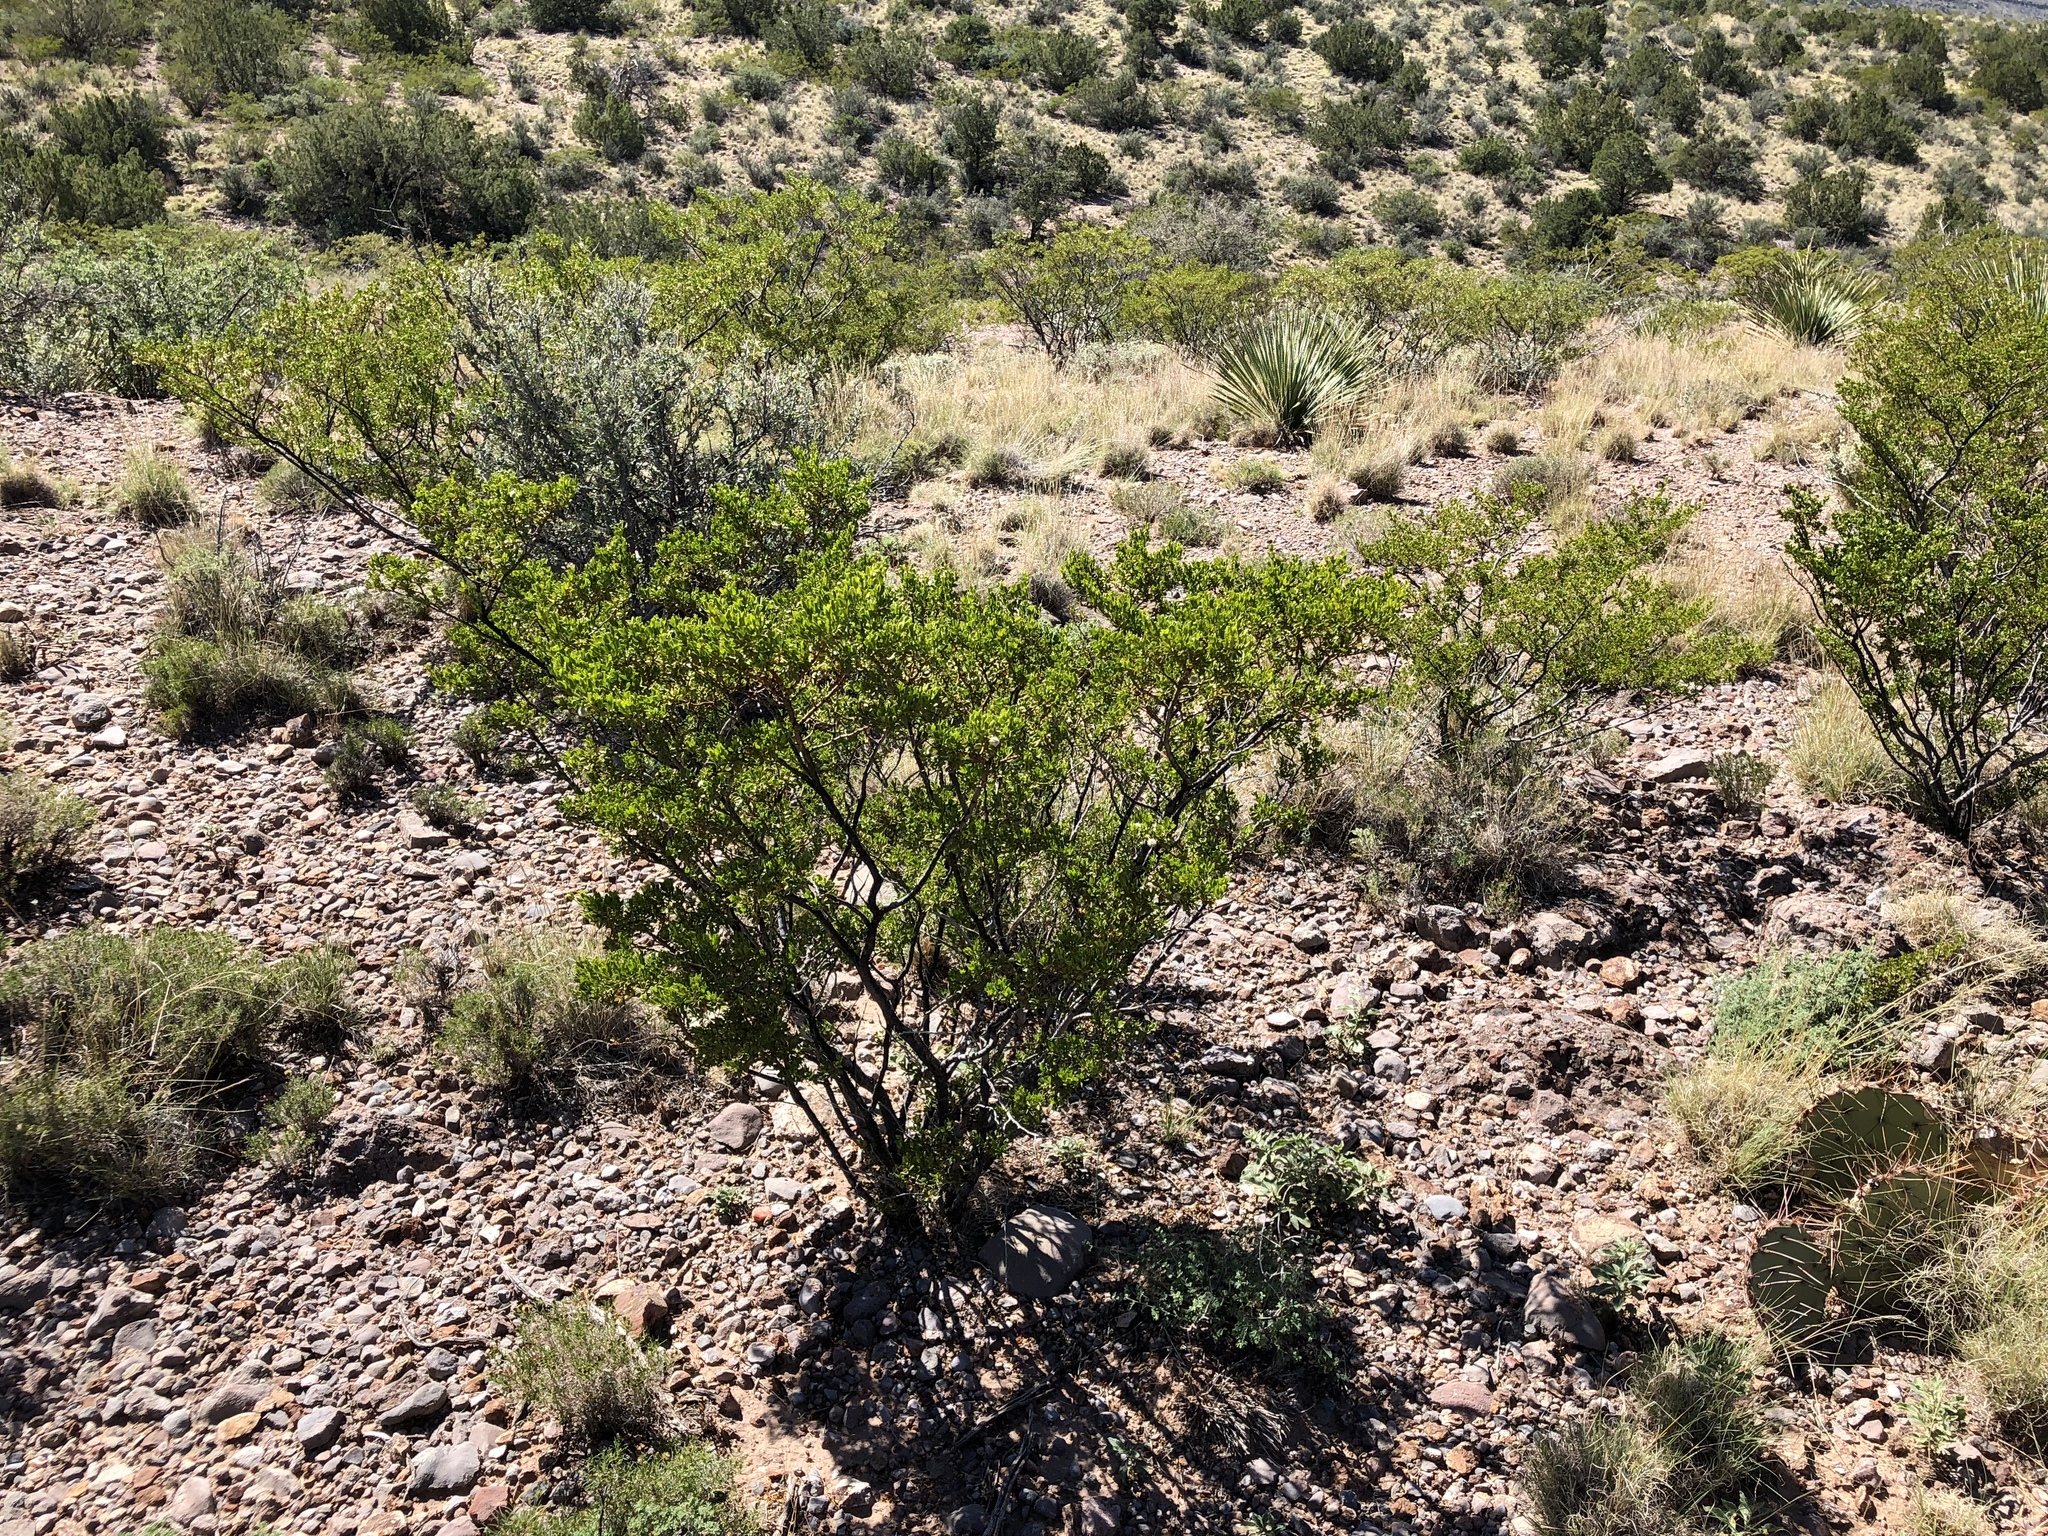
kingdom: Plantae
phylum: Tracheophyta
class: Magnoliopsida
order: Zygophyllales
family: Zygophyllaceae
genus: Larrea
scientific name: Larrea tridentata
